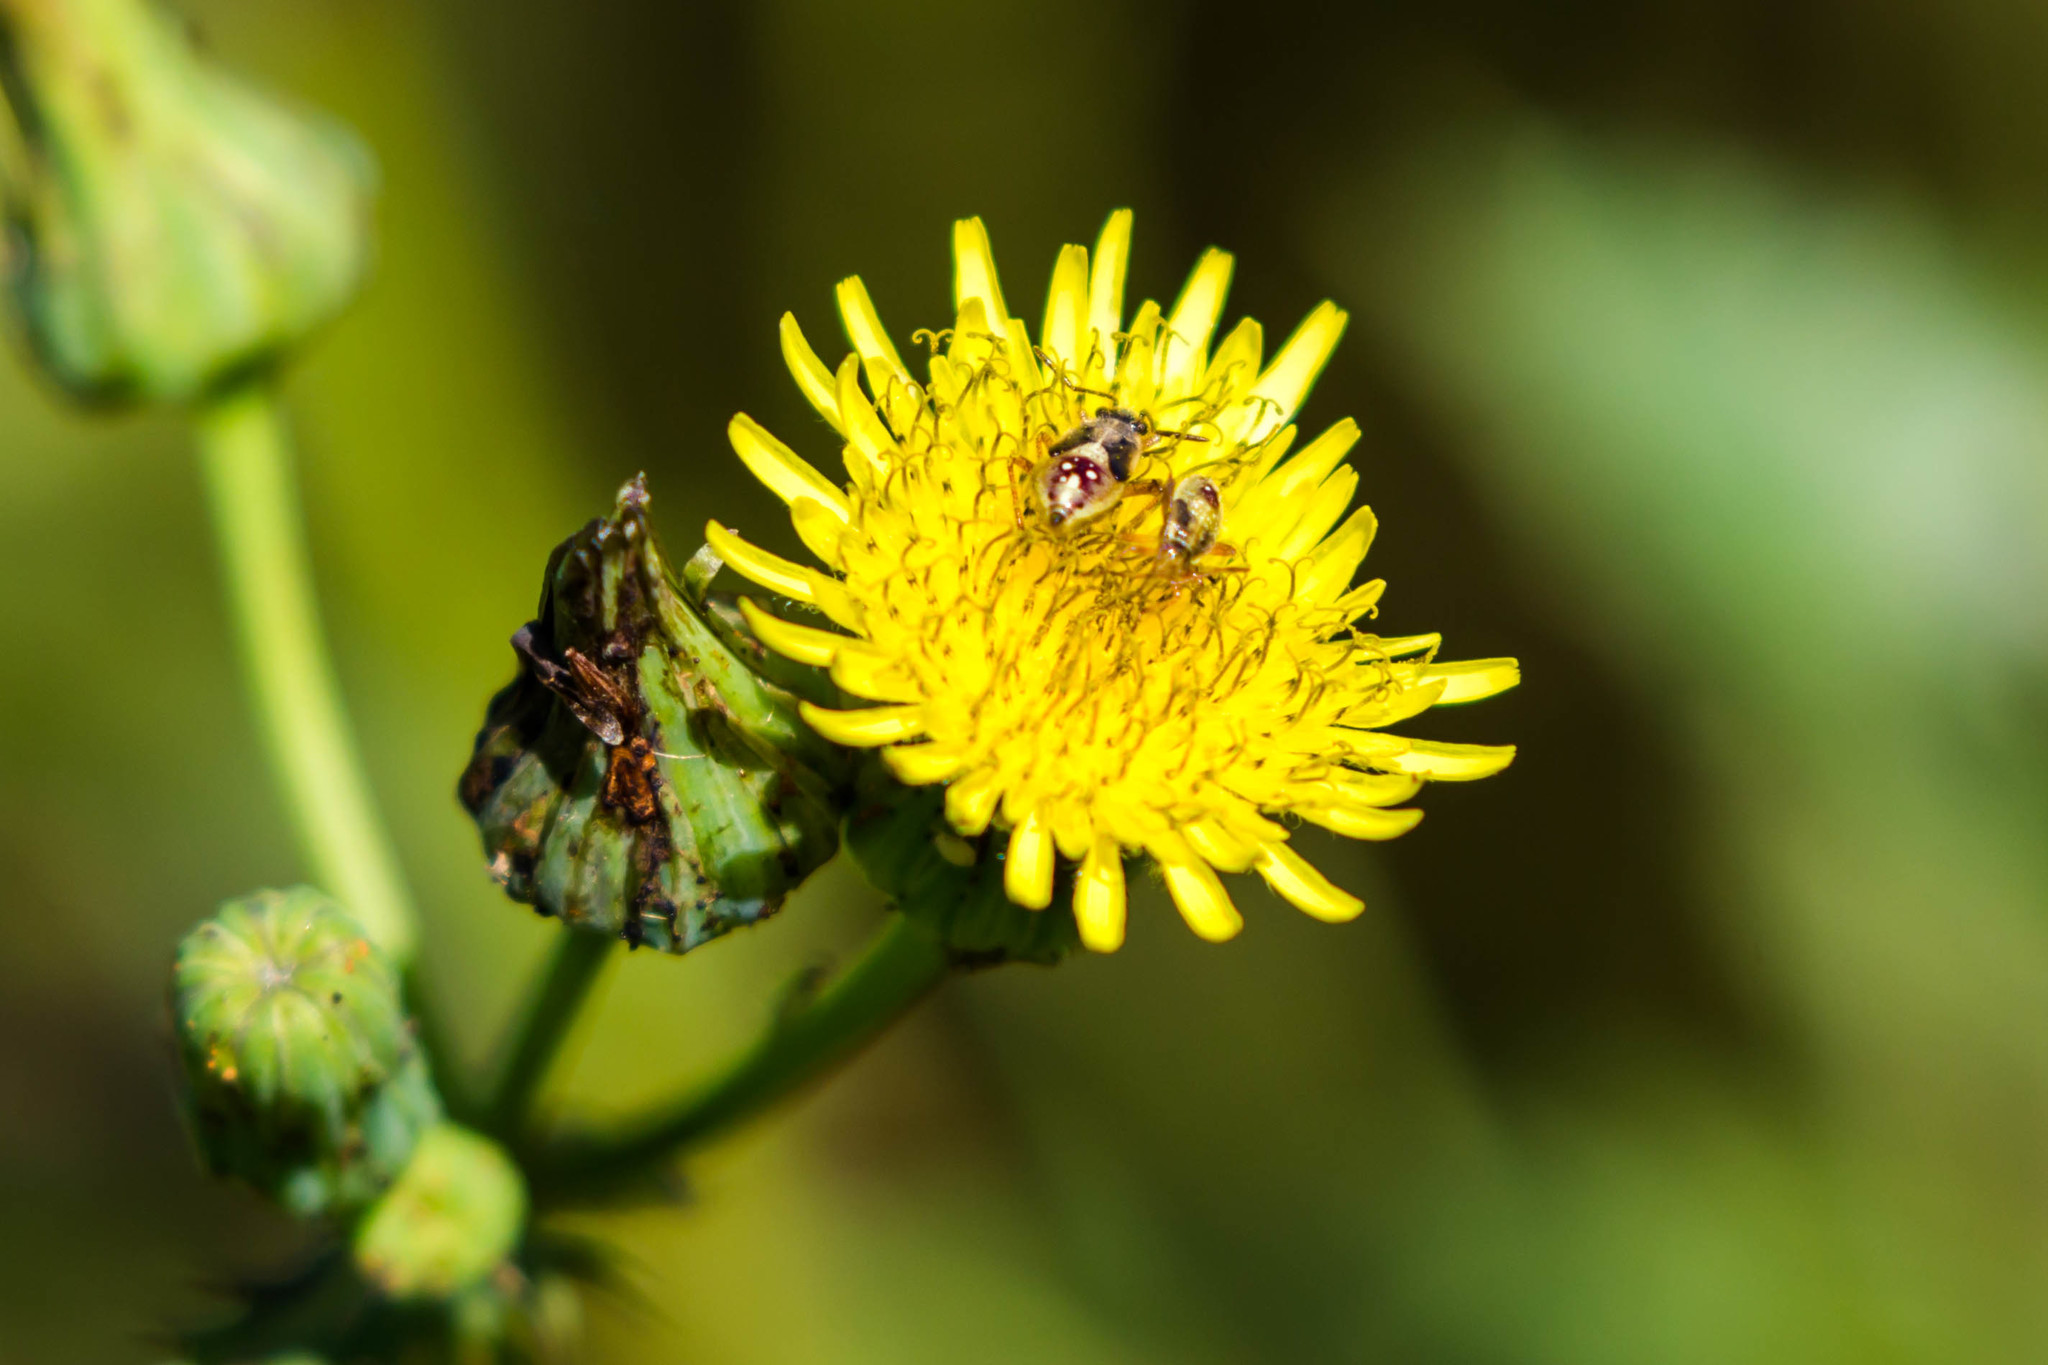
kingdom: Animalia
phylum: Arthropoda
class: Insecta
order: Hemiptera
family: Rhopalidae
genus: Liorhyssus
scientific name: Liorhyssus hyalinus
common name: Scentless plant bug
